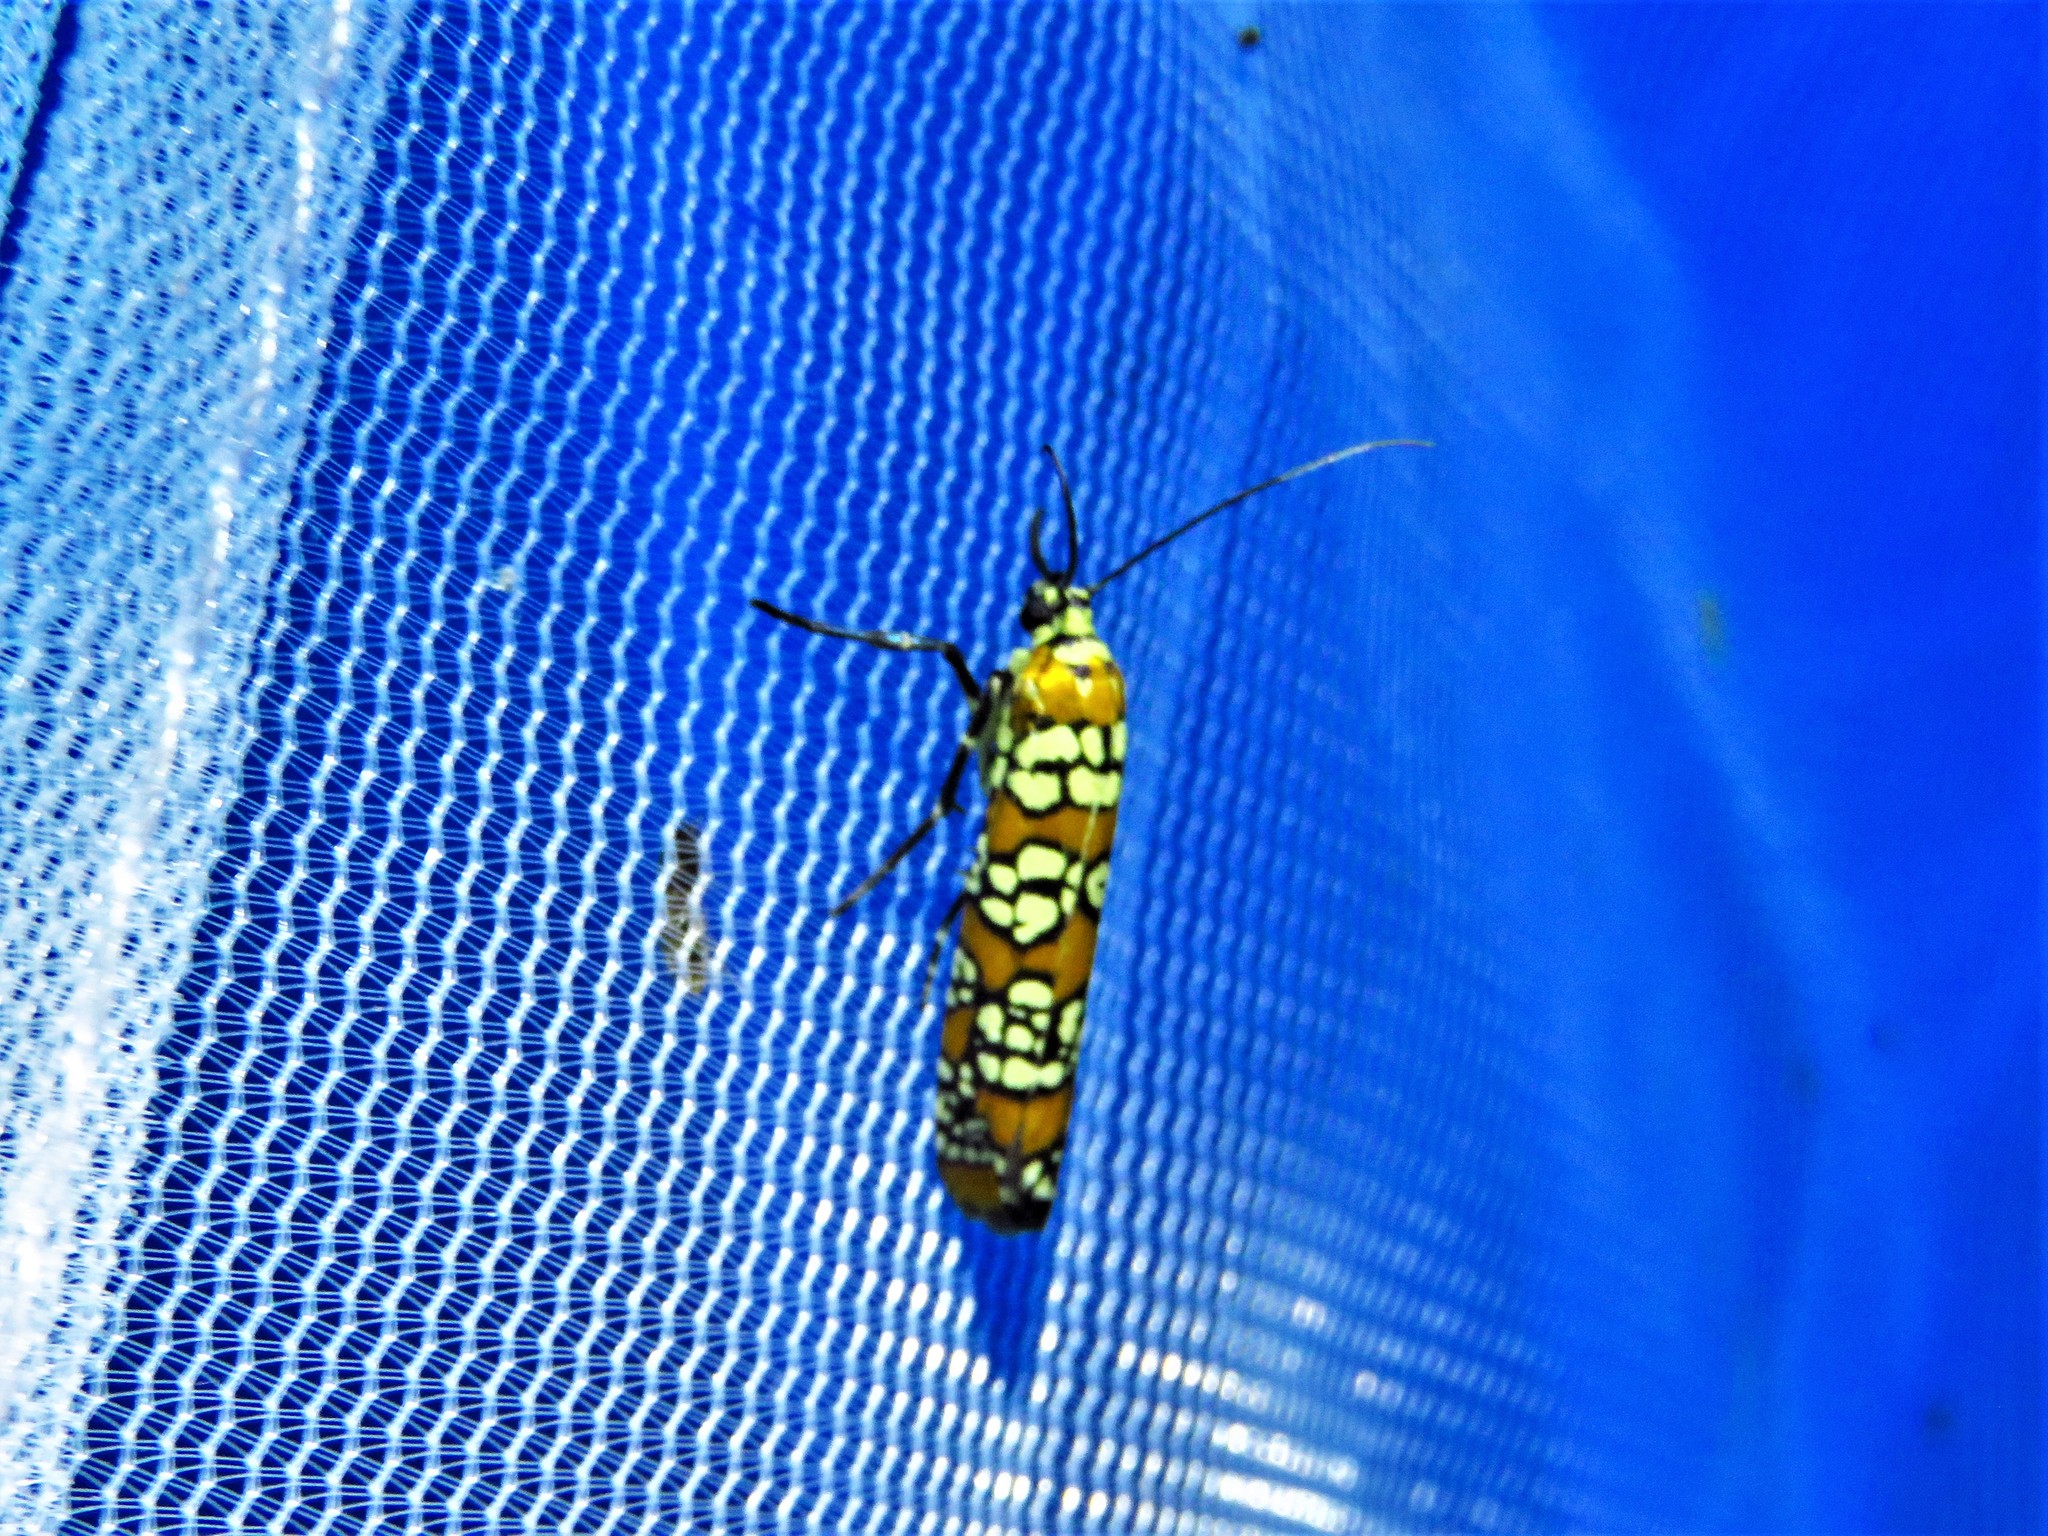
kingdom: Animalia
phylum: Arthropoda
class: Insecta
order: Lepidoptera
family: Attevidae
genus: Atteva
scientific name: Atteva punctella
